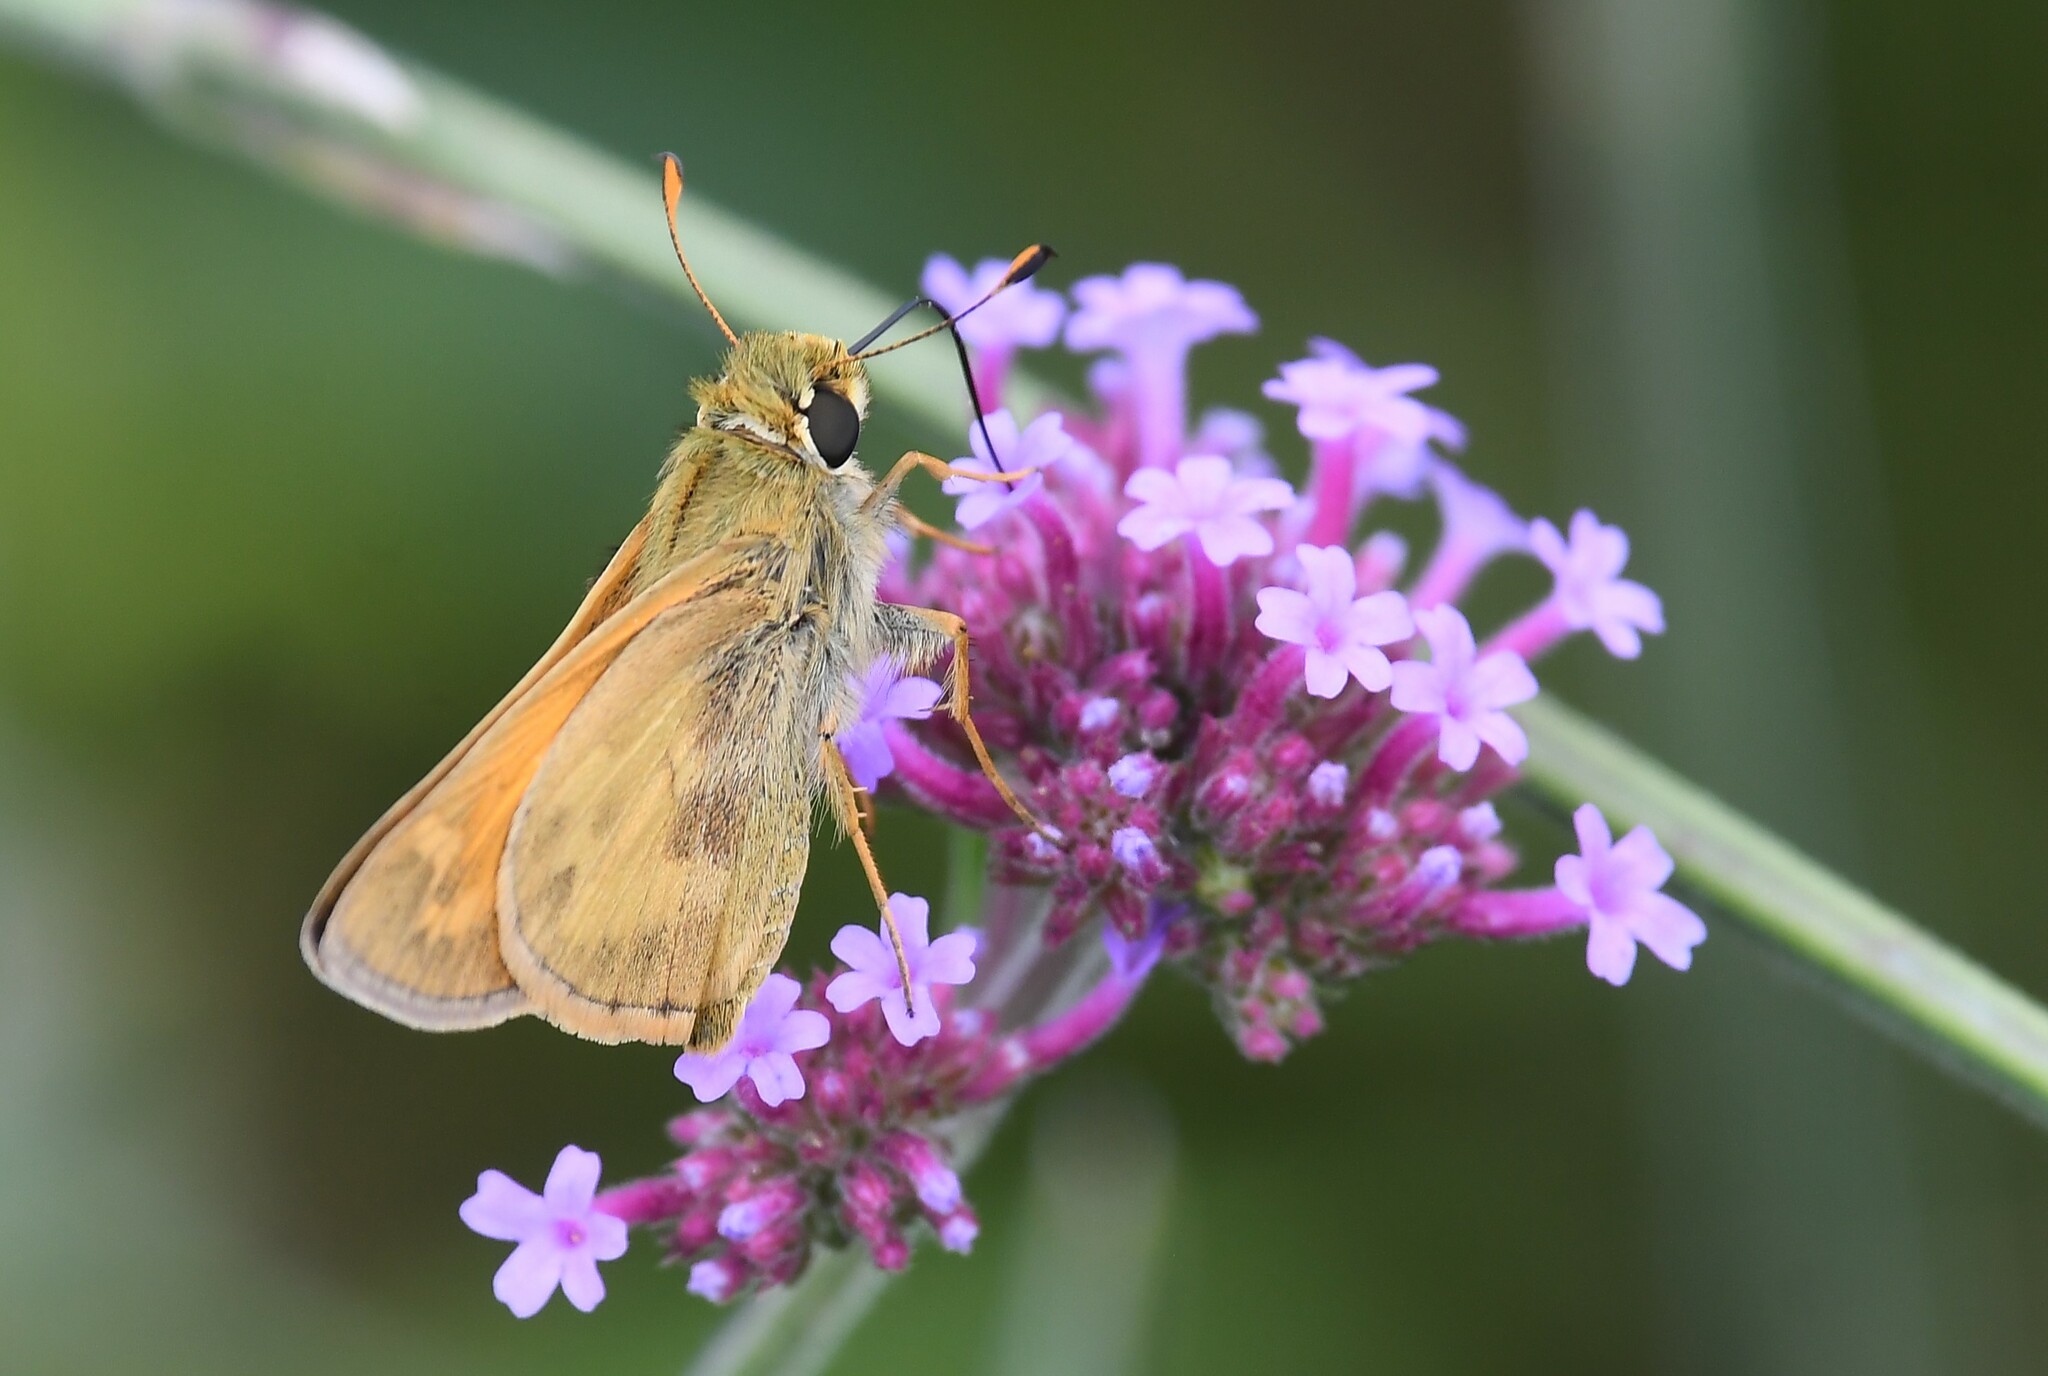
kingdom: Animalia
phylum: Arthropoda
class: Insecta
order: Lepidoptera
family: Hesperiidae
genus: Atalopedes
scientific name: Atalopedes
